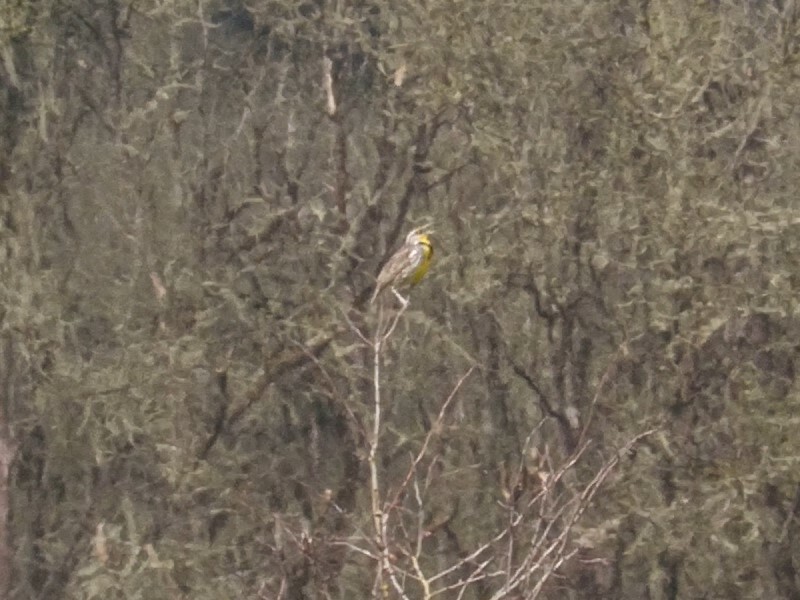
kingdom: Animalia
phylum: Chordata
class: Aves
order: Passeriformes
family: Icteridae
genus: Sturnella
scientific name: Sturnella neglecta
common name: Western meadowlark
